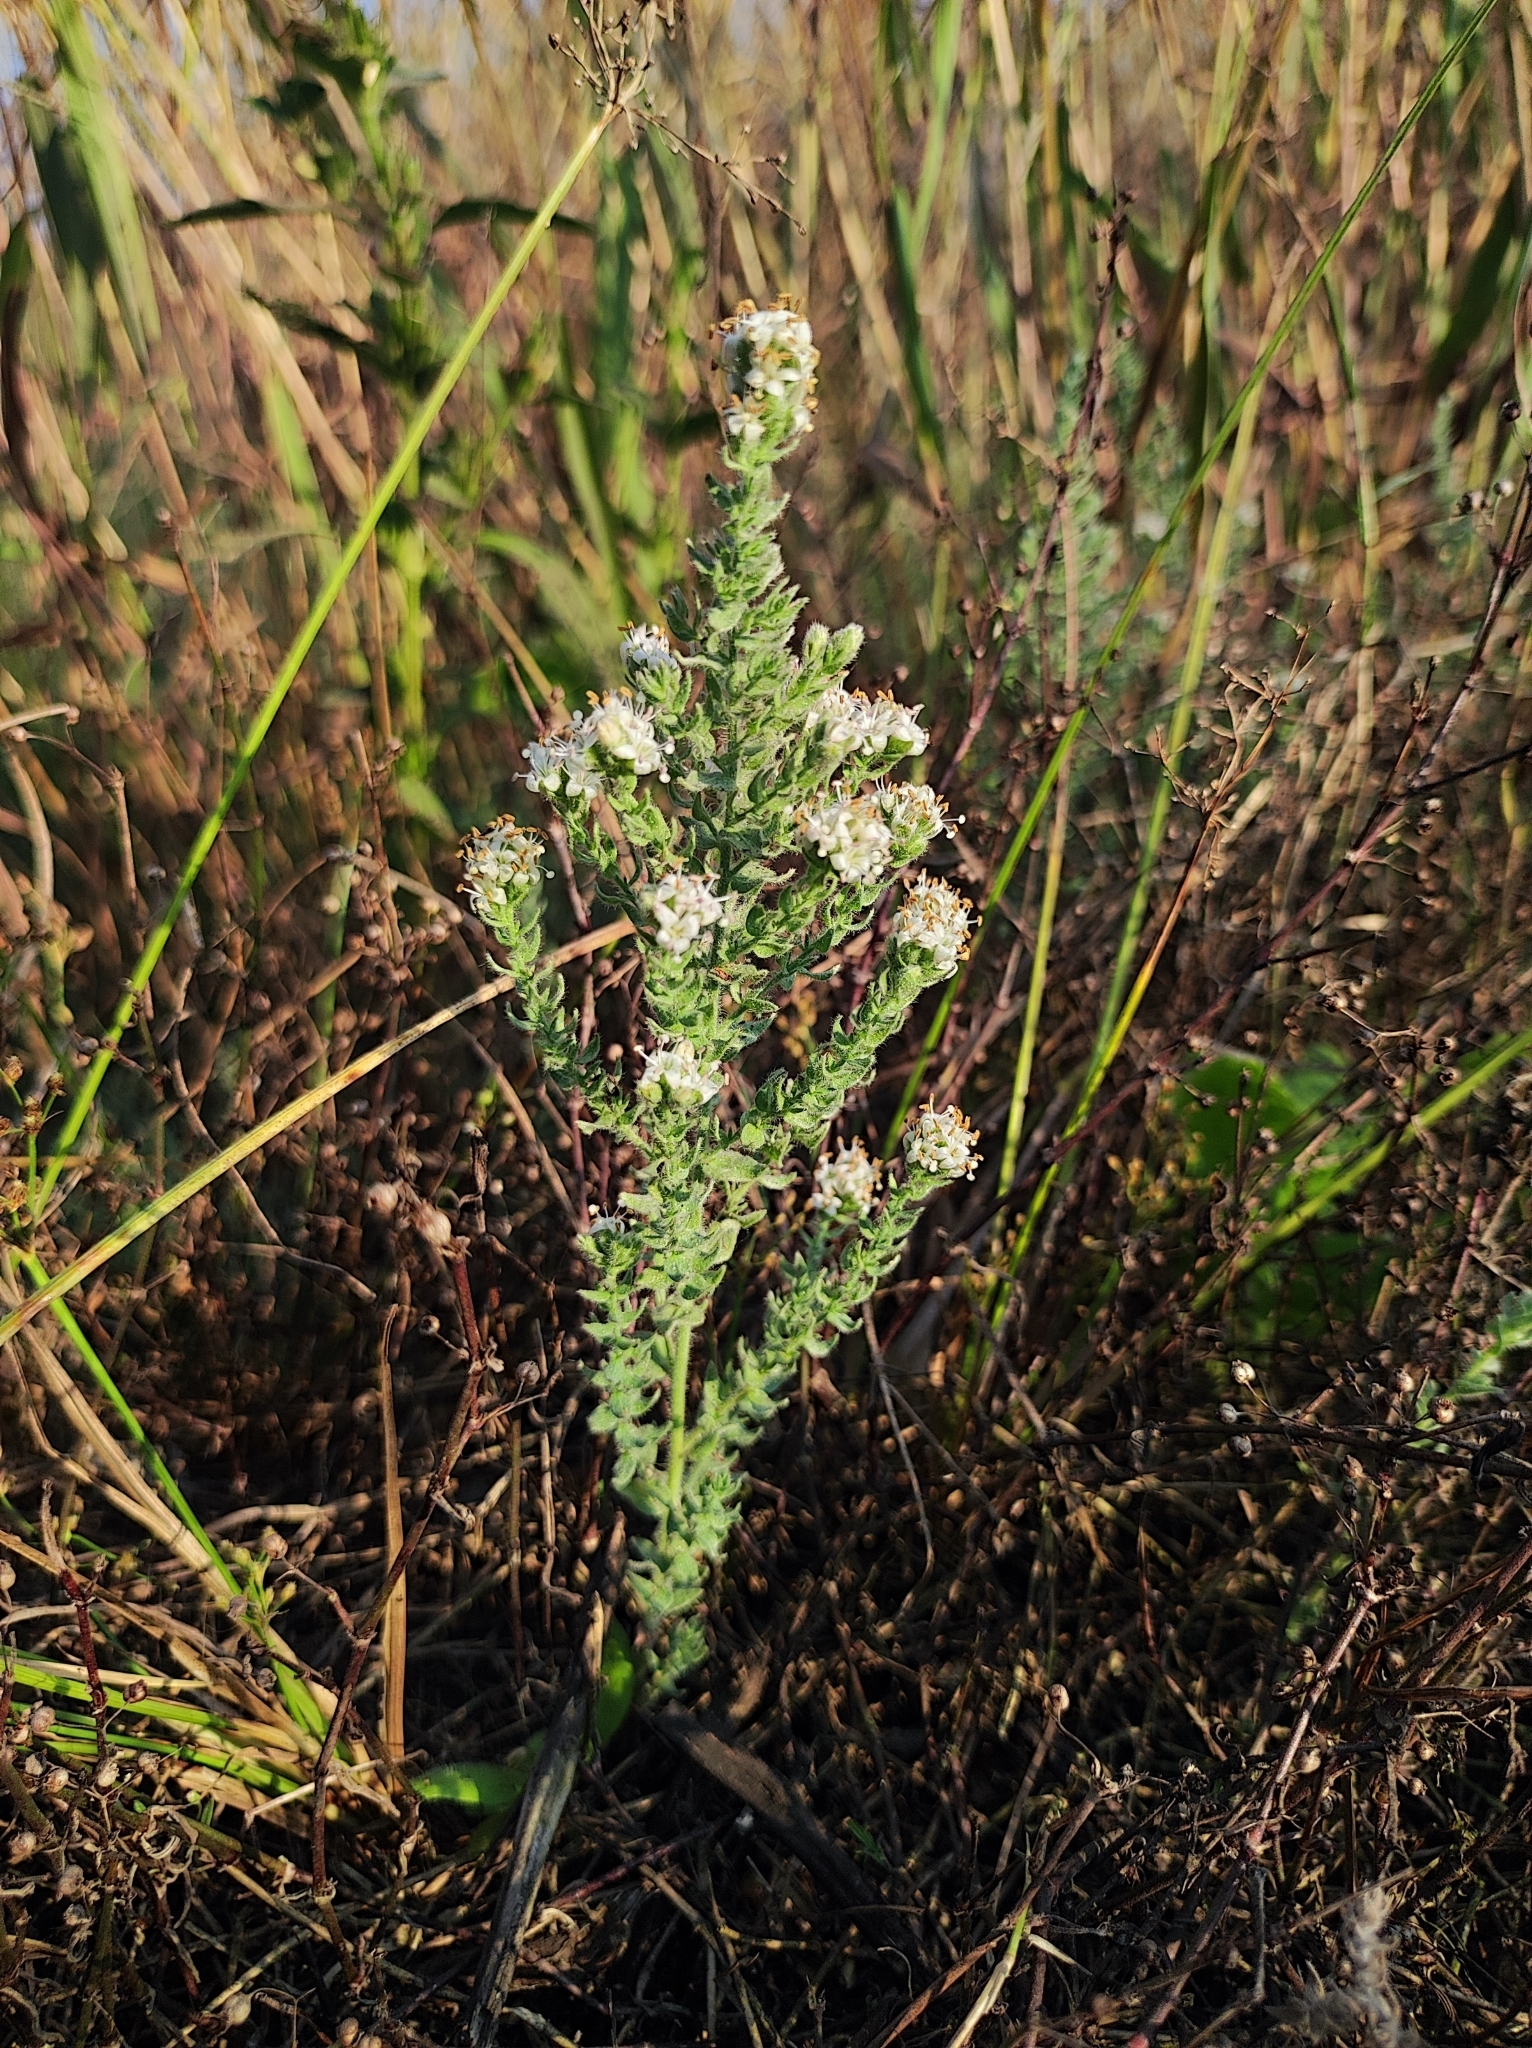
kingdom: Plantae
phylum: Tracheophyta
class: Magnoliopsida
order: Solanales
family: Convolvulaceae
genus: Cressa
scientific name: Cressa cretica
